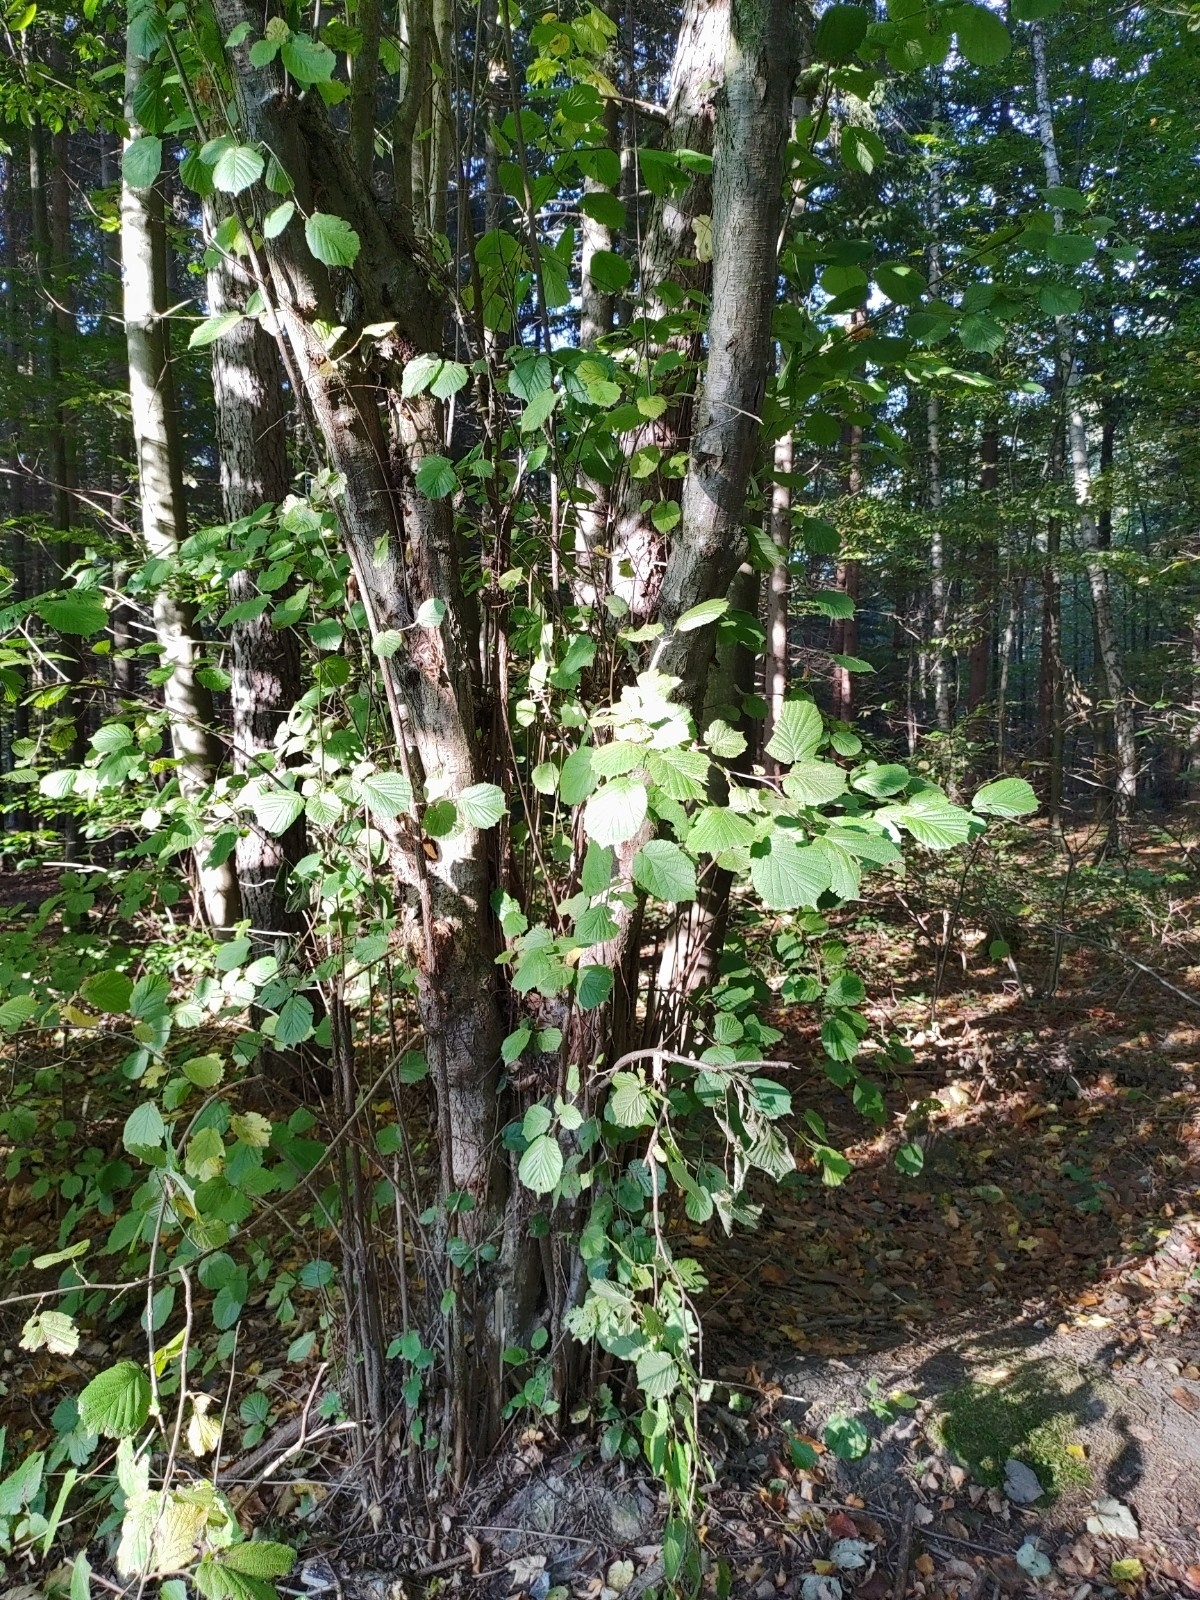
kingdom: Plantae
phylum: Tracheophyta
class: Magnoliopsida
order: Fagales
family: Betulaceae
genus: Corylus
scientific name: Corylus avellana
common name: European hazel
